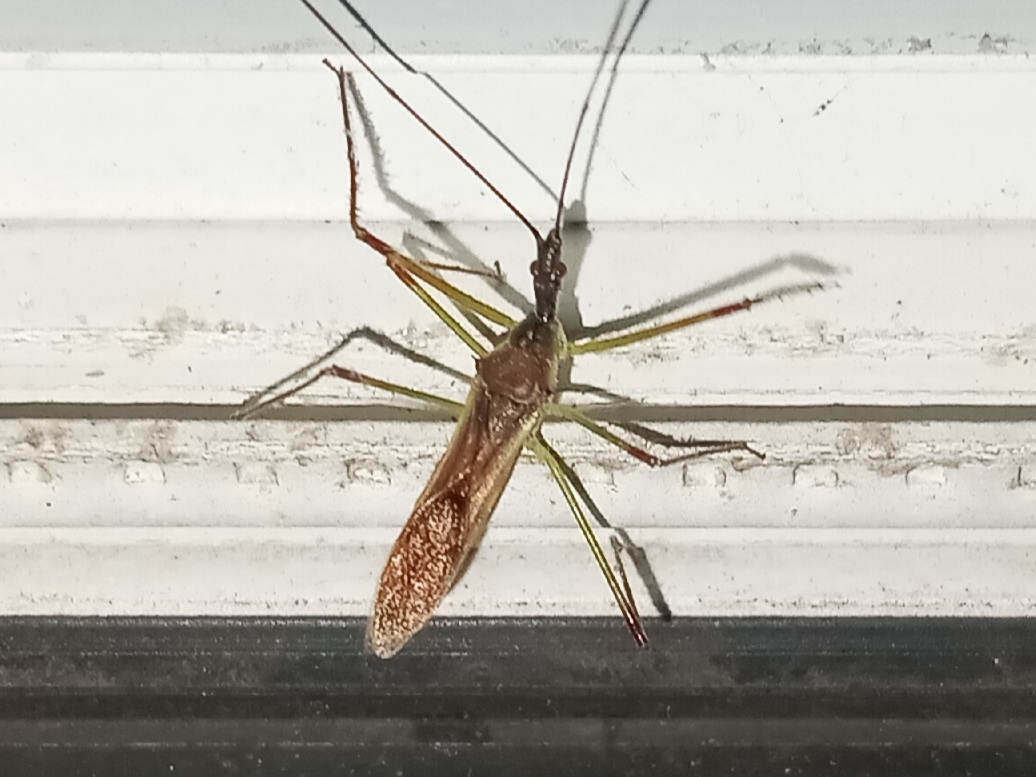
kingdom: Animalia
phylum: Arthropoda
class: Insecta
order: Hemiptera
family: Reduviidae
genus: Zelus
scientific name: Zelus luridus
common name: Pale green assassin bug
